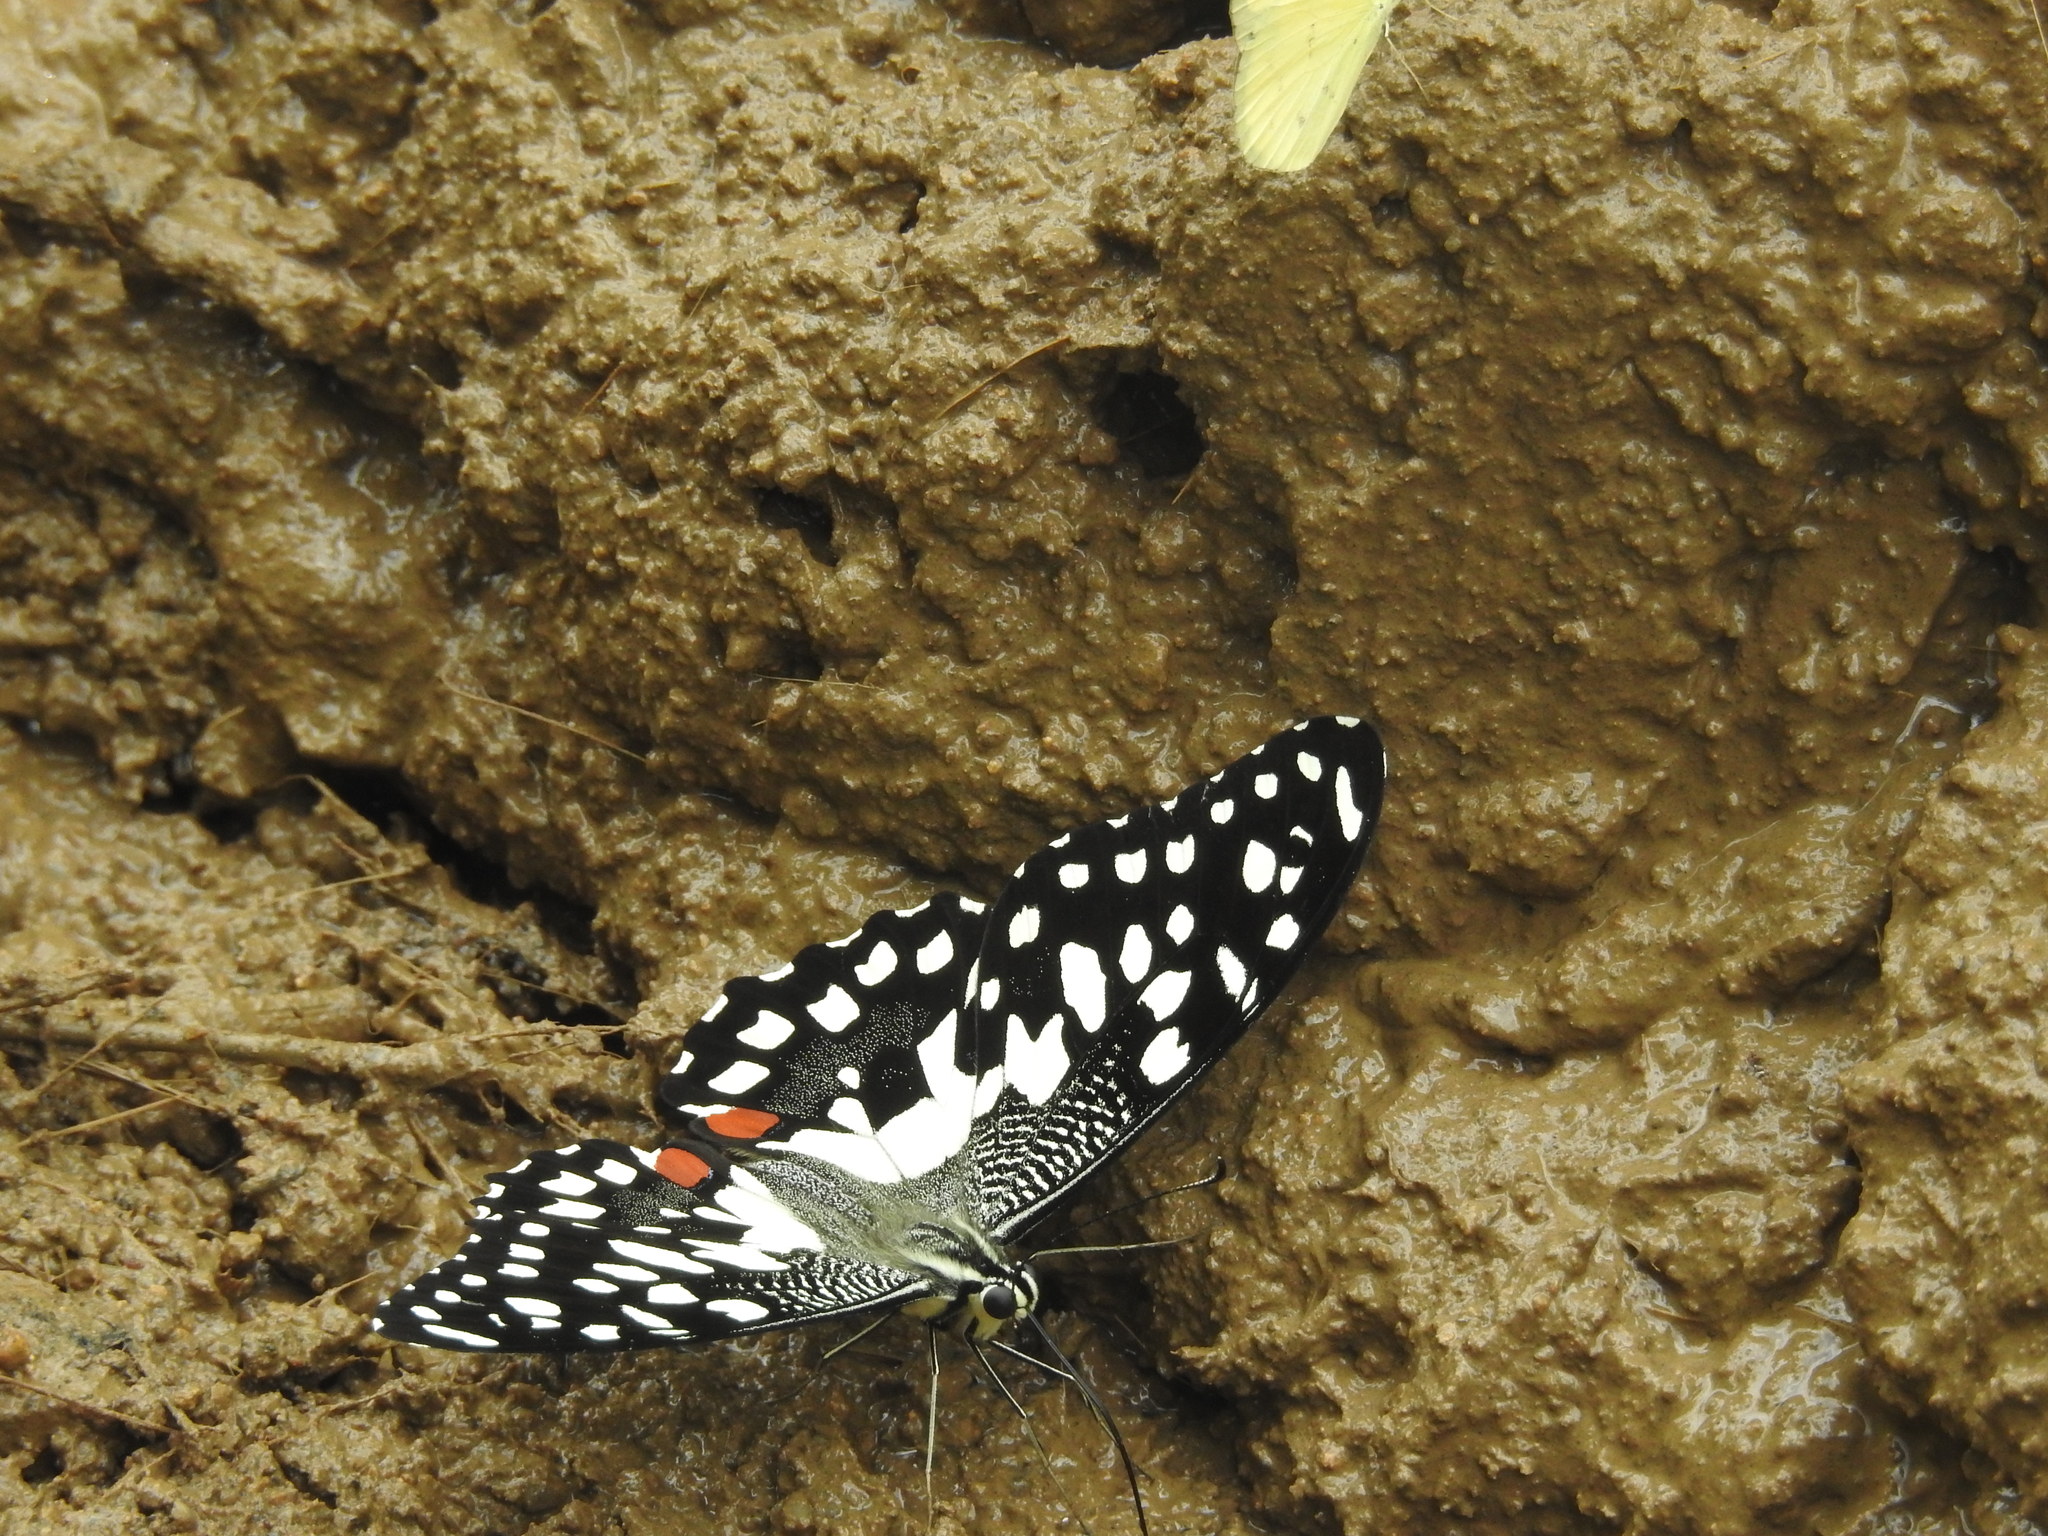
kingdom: Animalia
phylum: Arthropoda
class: Insecta
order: Lepidoptera
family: Papilionidae
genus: Papilio
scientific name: Papilio demoleus
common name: Lime butterfly
